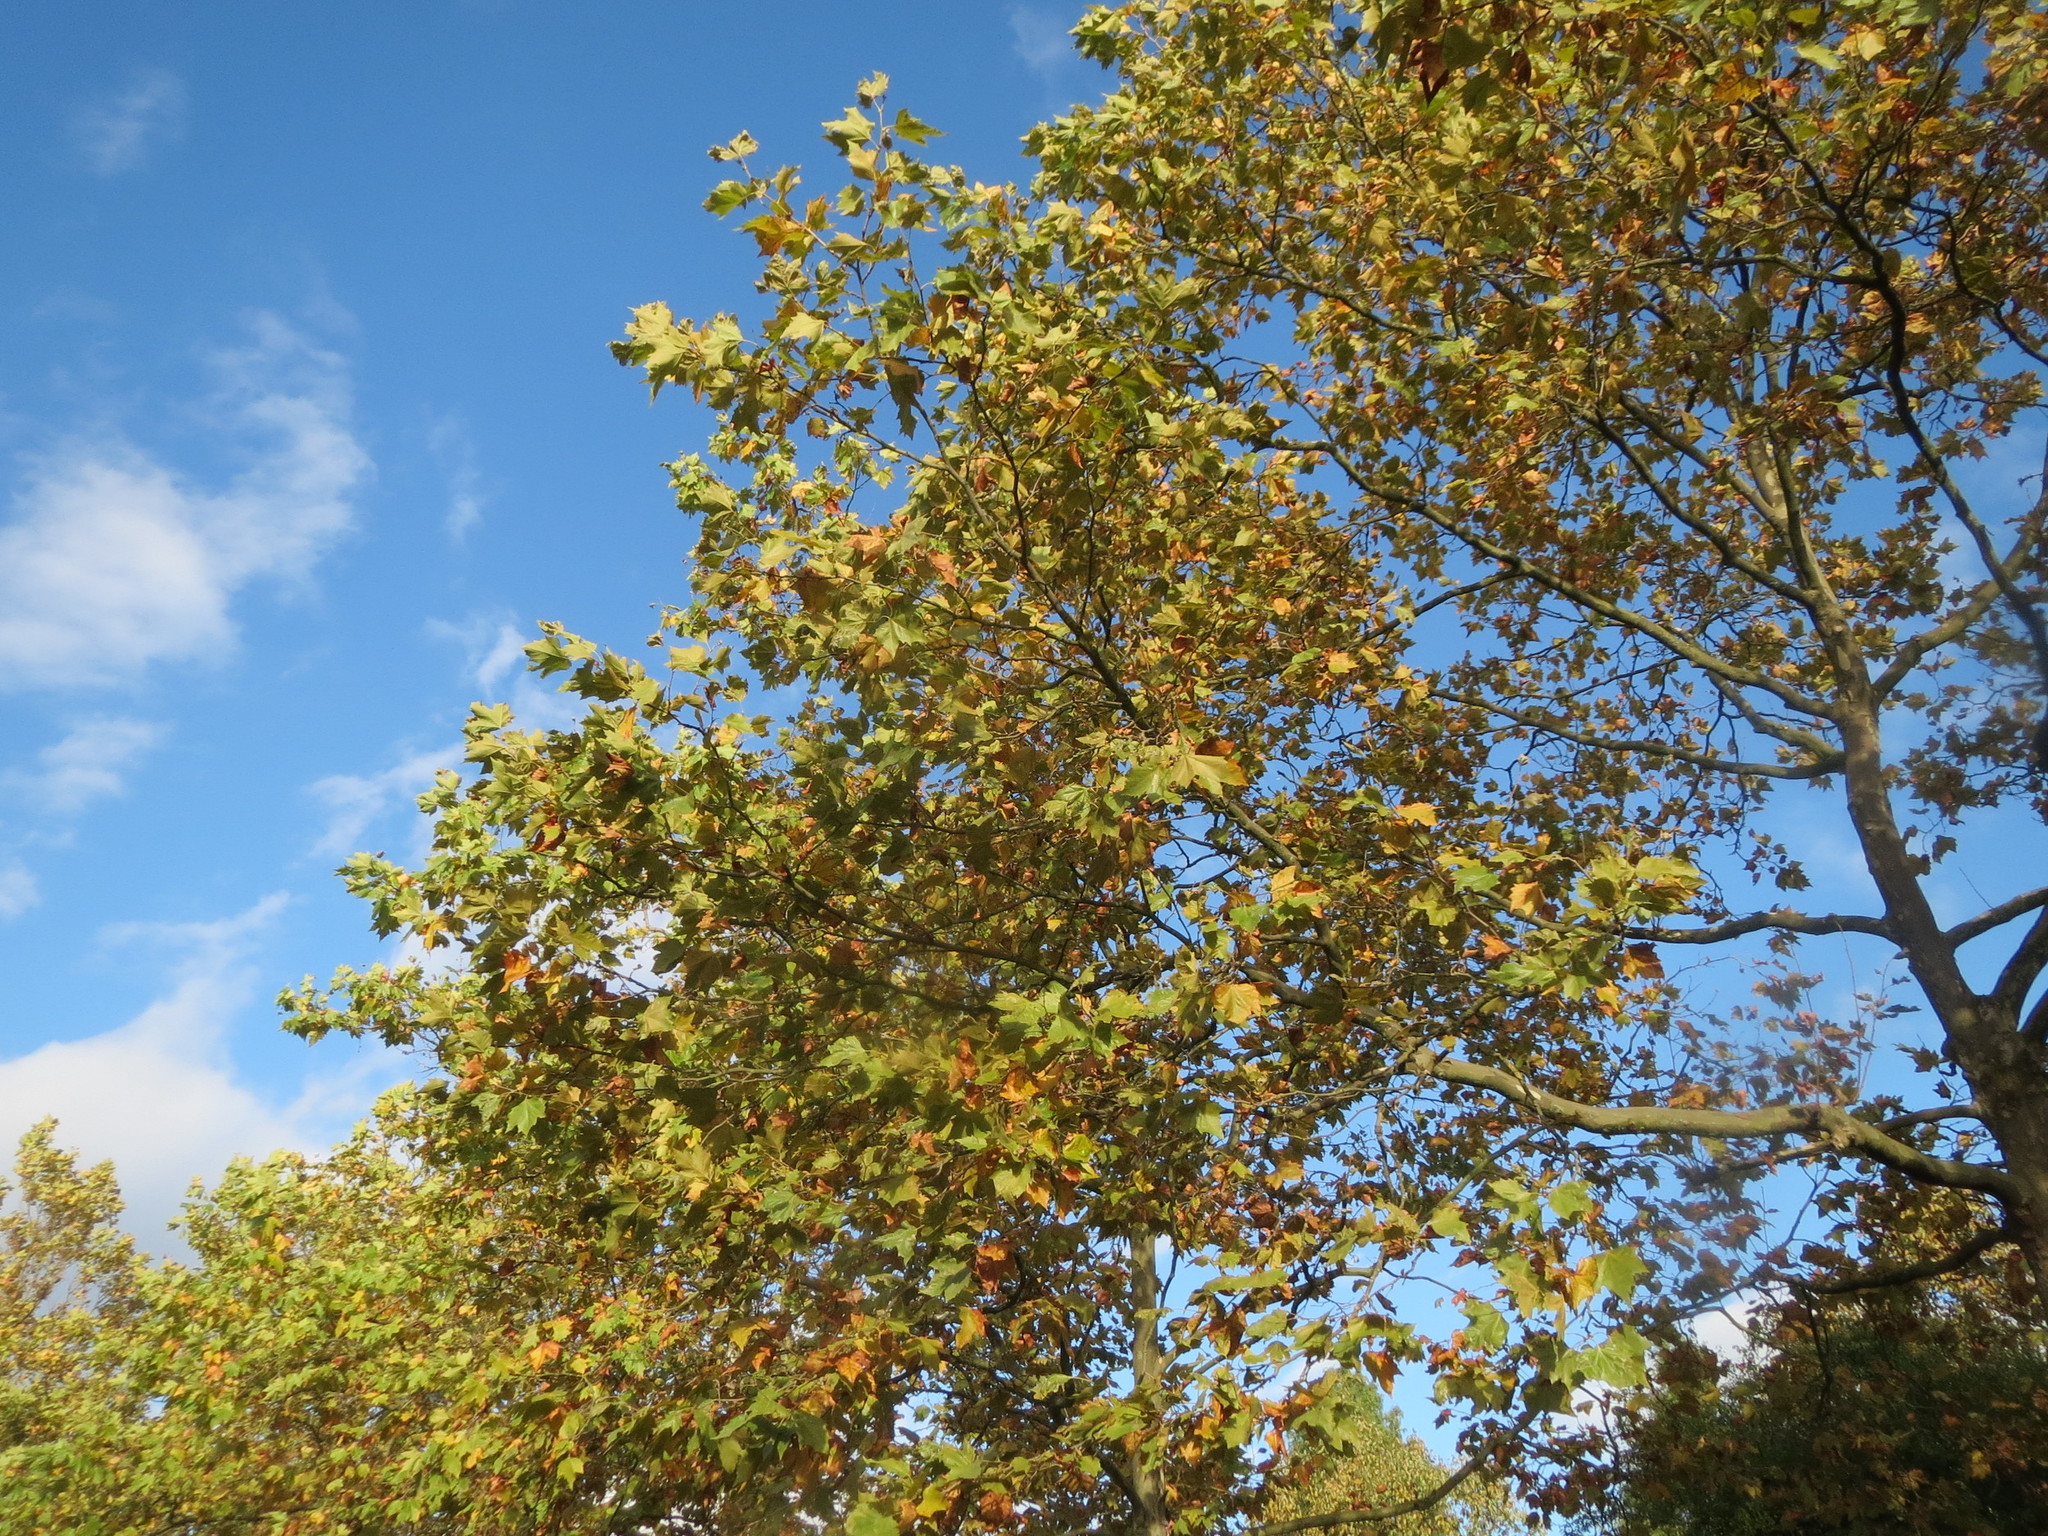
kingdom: Plantae
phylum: Tracheophyta
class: Magnoliopsida
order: Proteales
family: Platanaceae
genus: Platanus
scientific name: Platanus hispanica
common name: London plane
